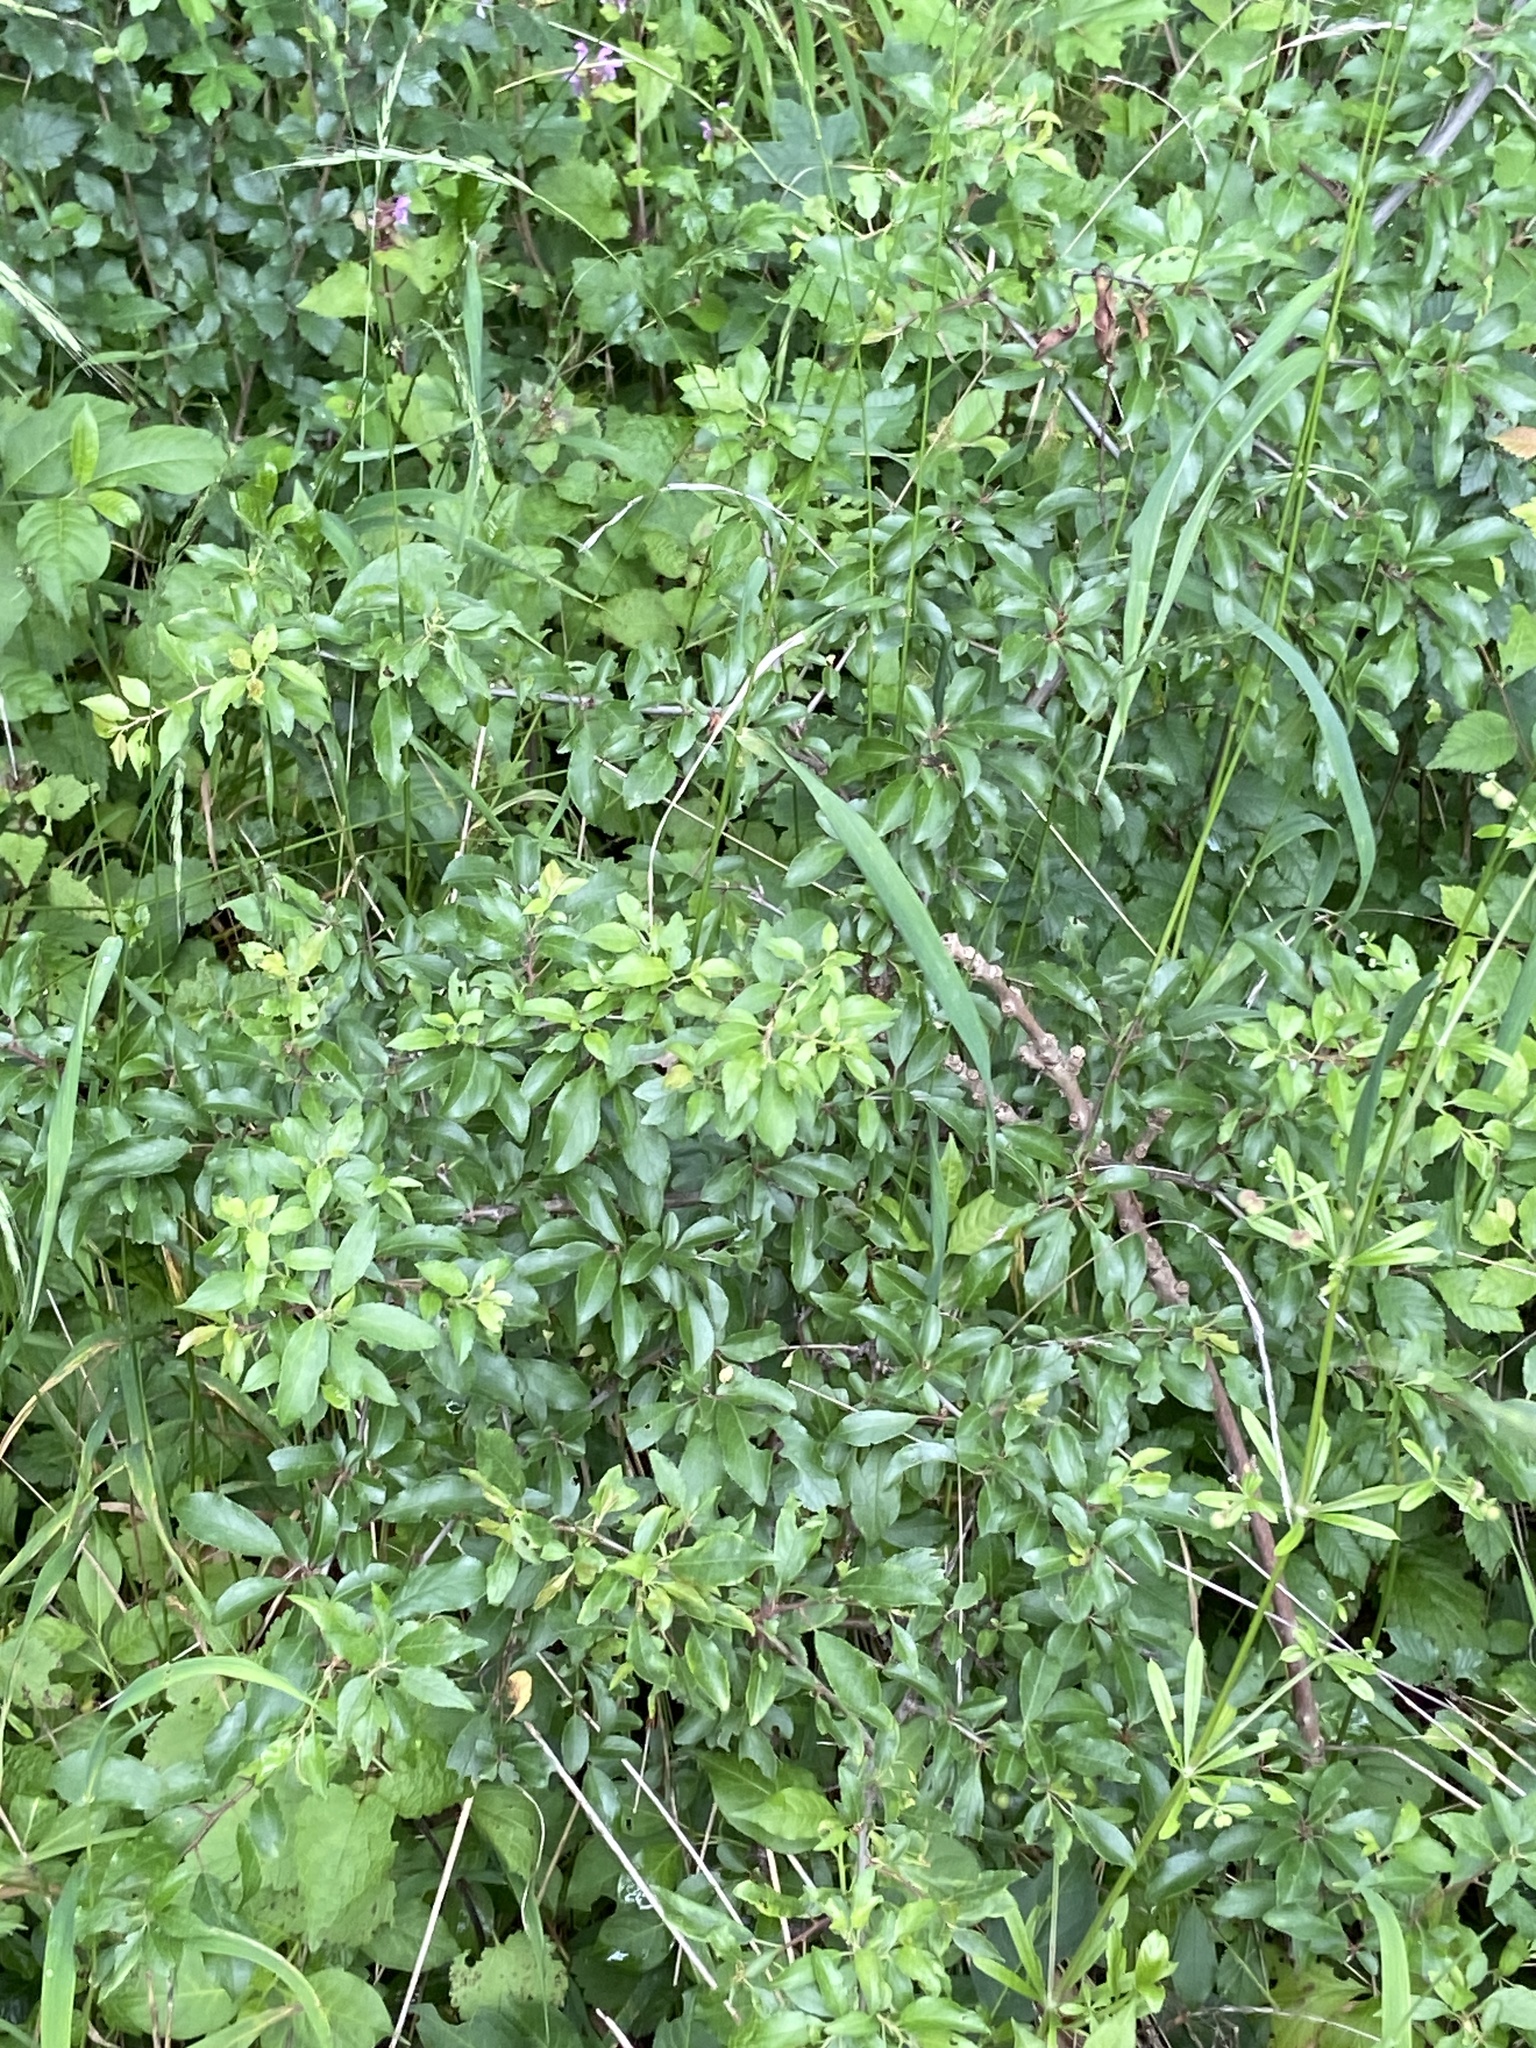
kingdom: Plantae
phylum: Tracheophyta
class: Magnoliopsida
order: Rosales
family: Rosaceae
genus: Prunus
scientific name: Prunus spinosa
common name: Blackthorn
